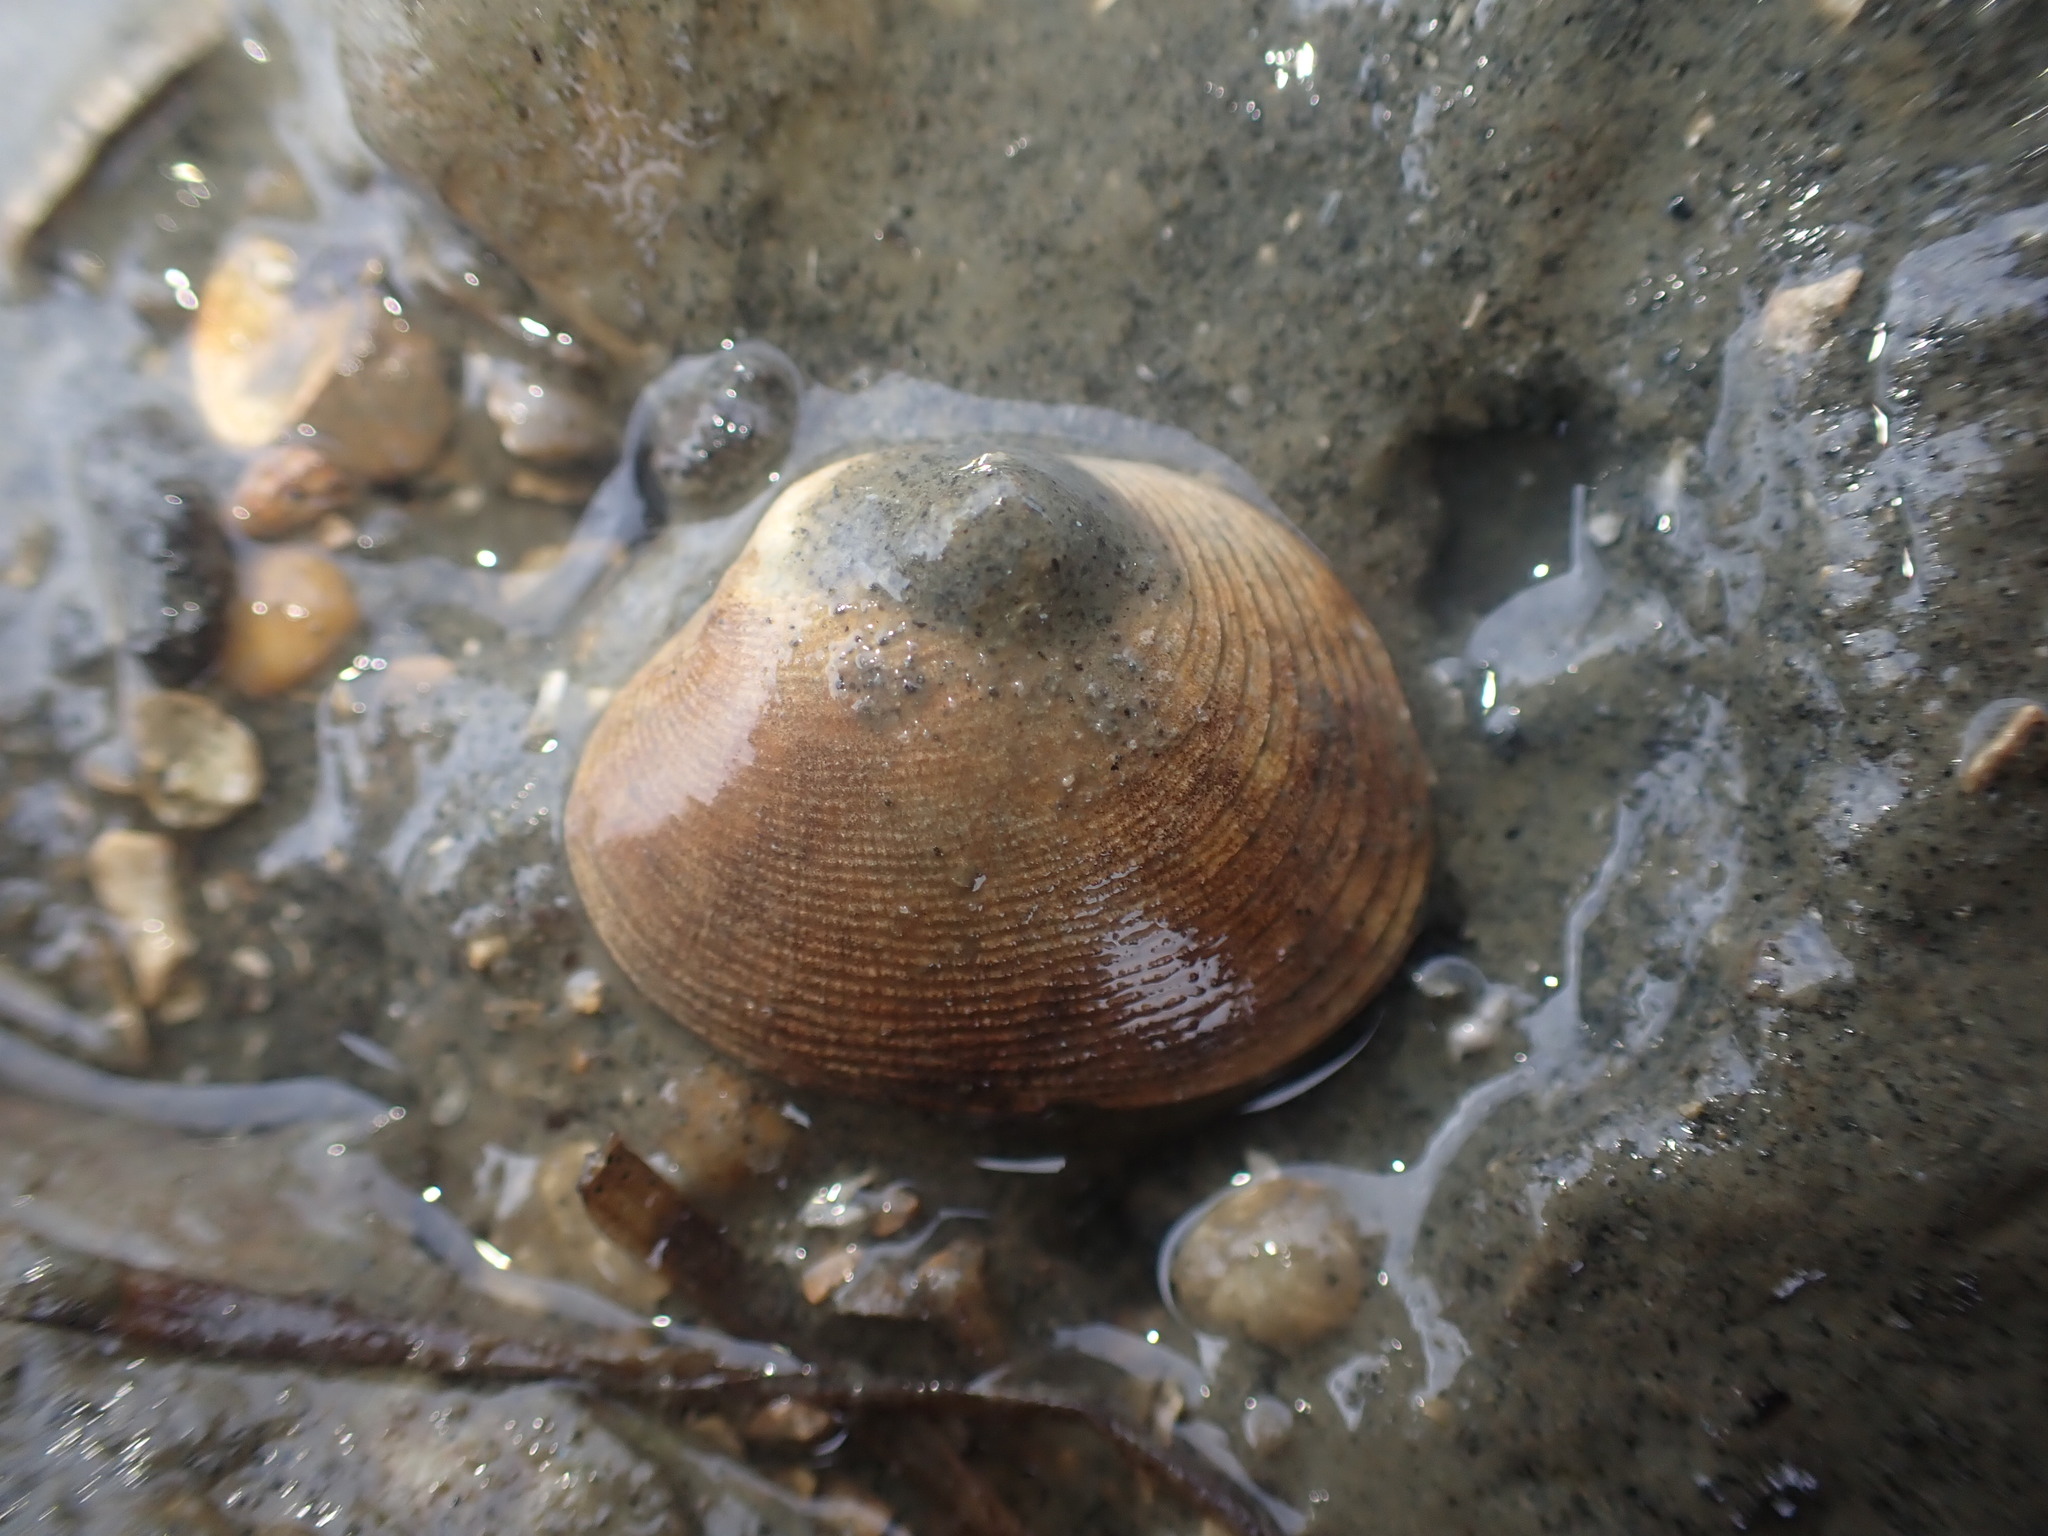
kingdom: Animalia
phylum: Mollusca
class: Bivalvia
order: Venerida
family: Veneridae
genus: Venerupis
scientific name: Venerupis largillierti
